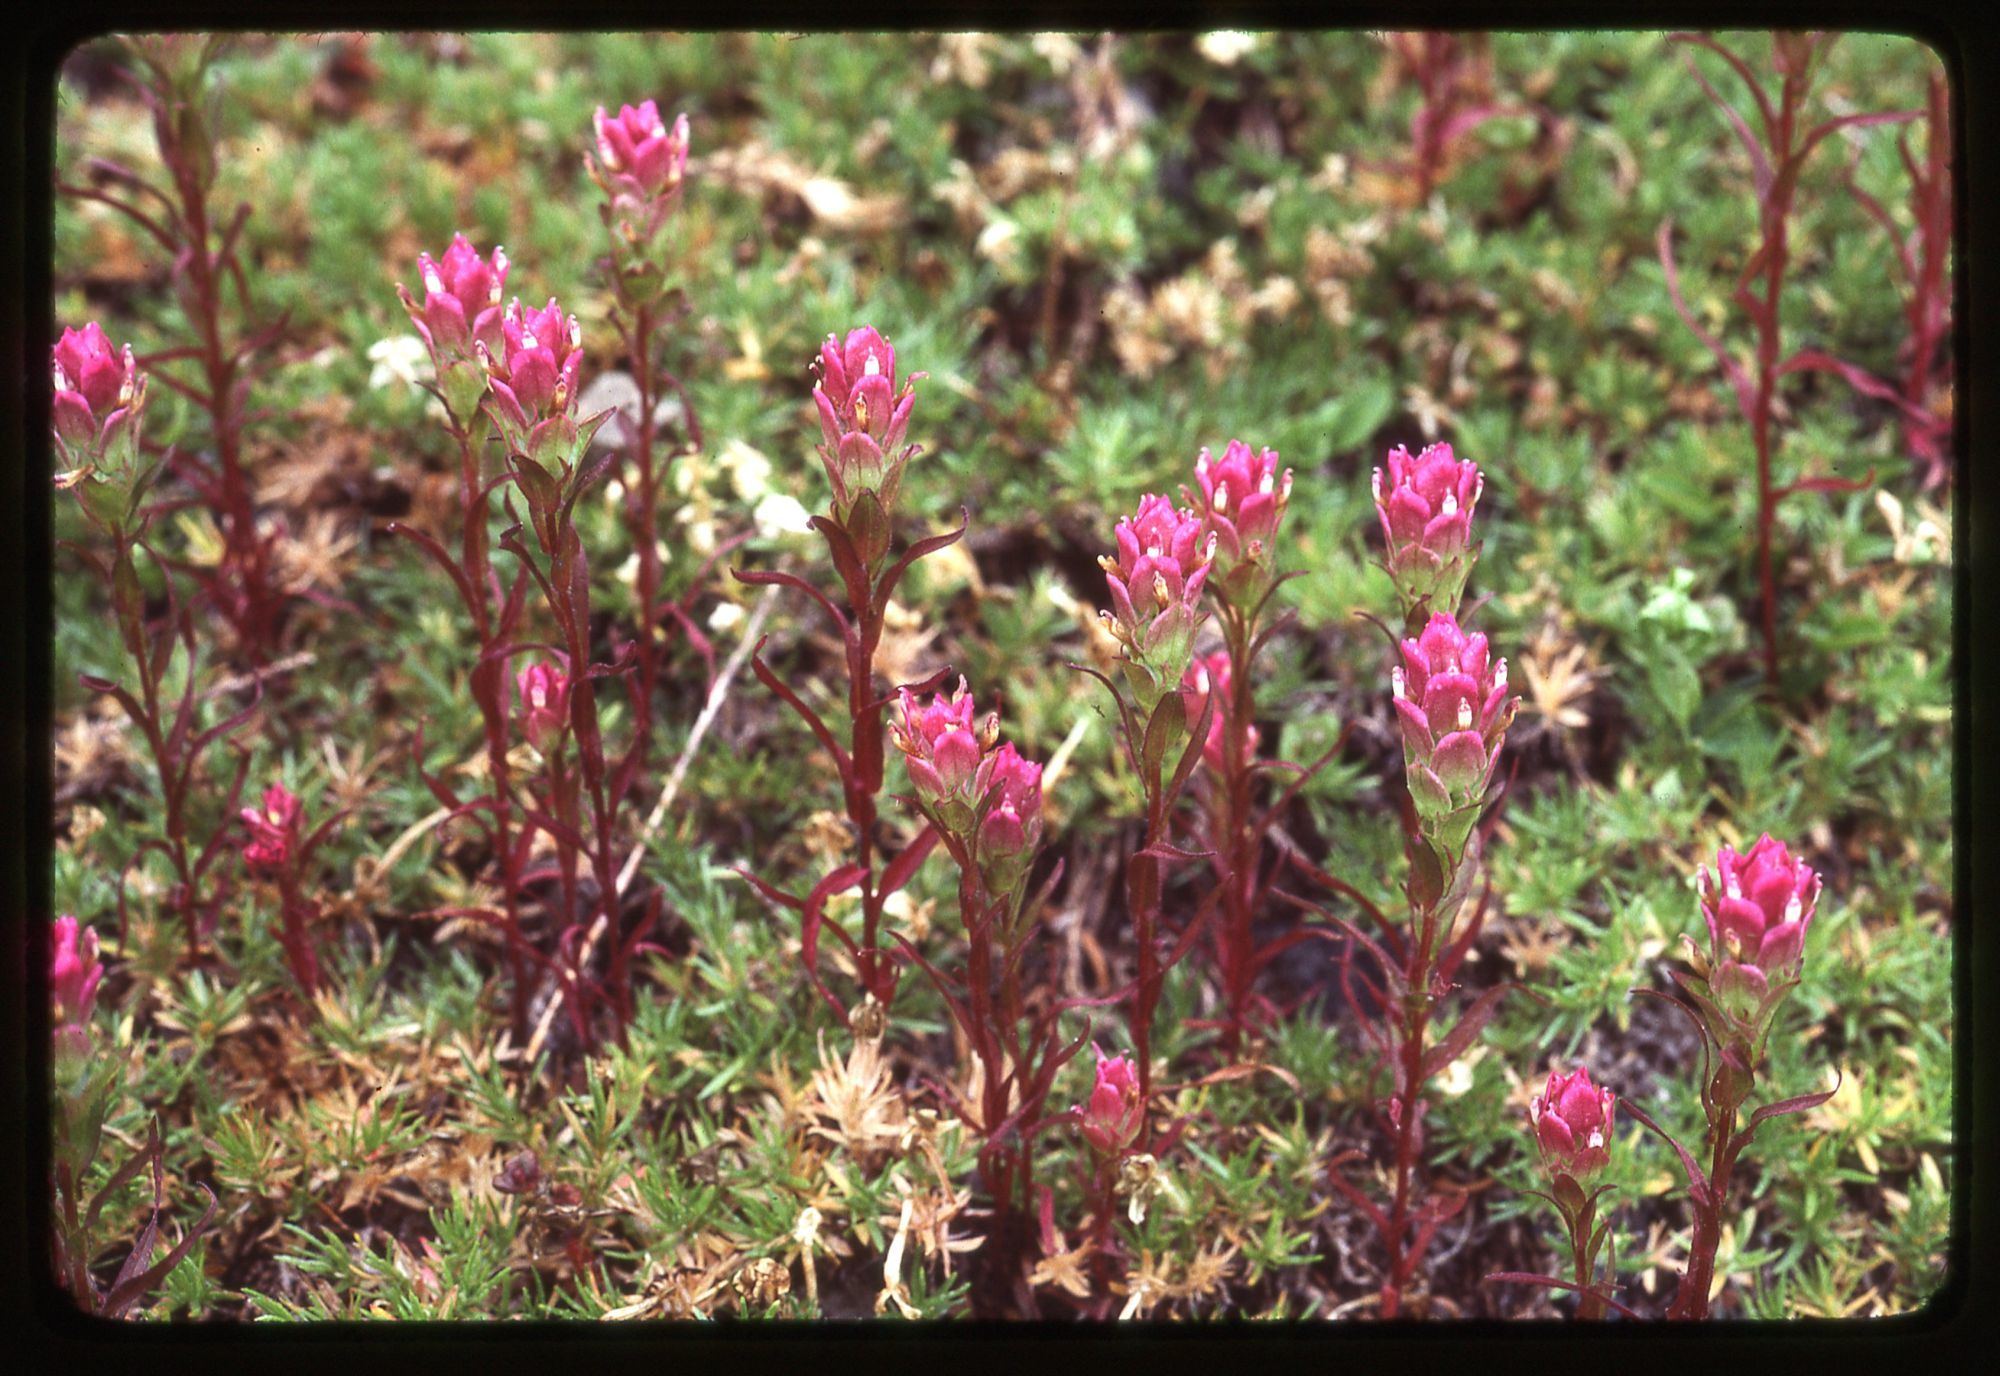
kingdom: Plantae
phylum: Tracheophyta
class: Magnoliopsida
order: Lamiales
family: Orobanchaceae
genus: Orthocarpus
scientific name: Orthocarpus imbricatus
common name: Mountain owl's-clover
